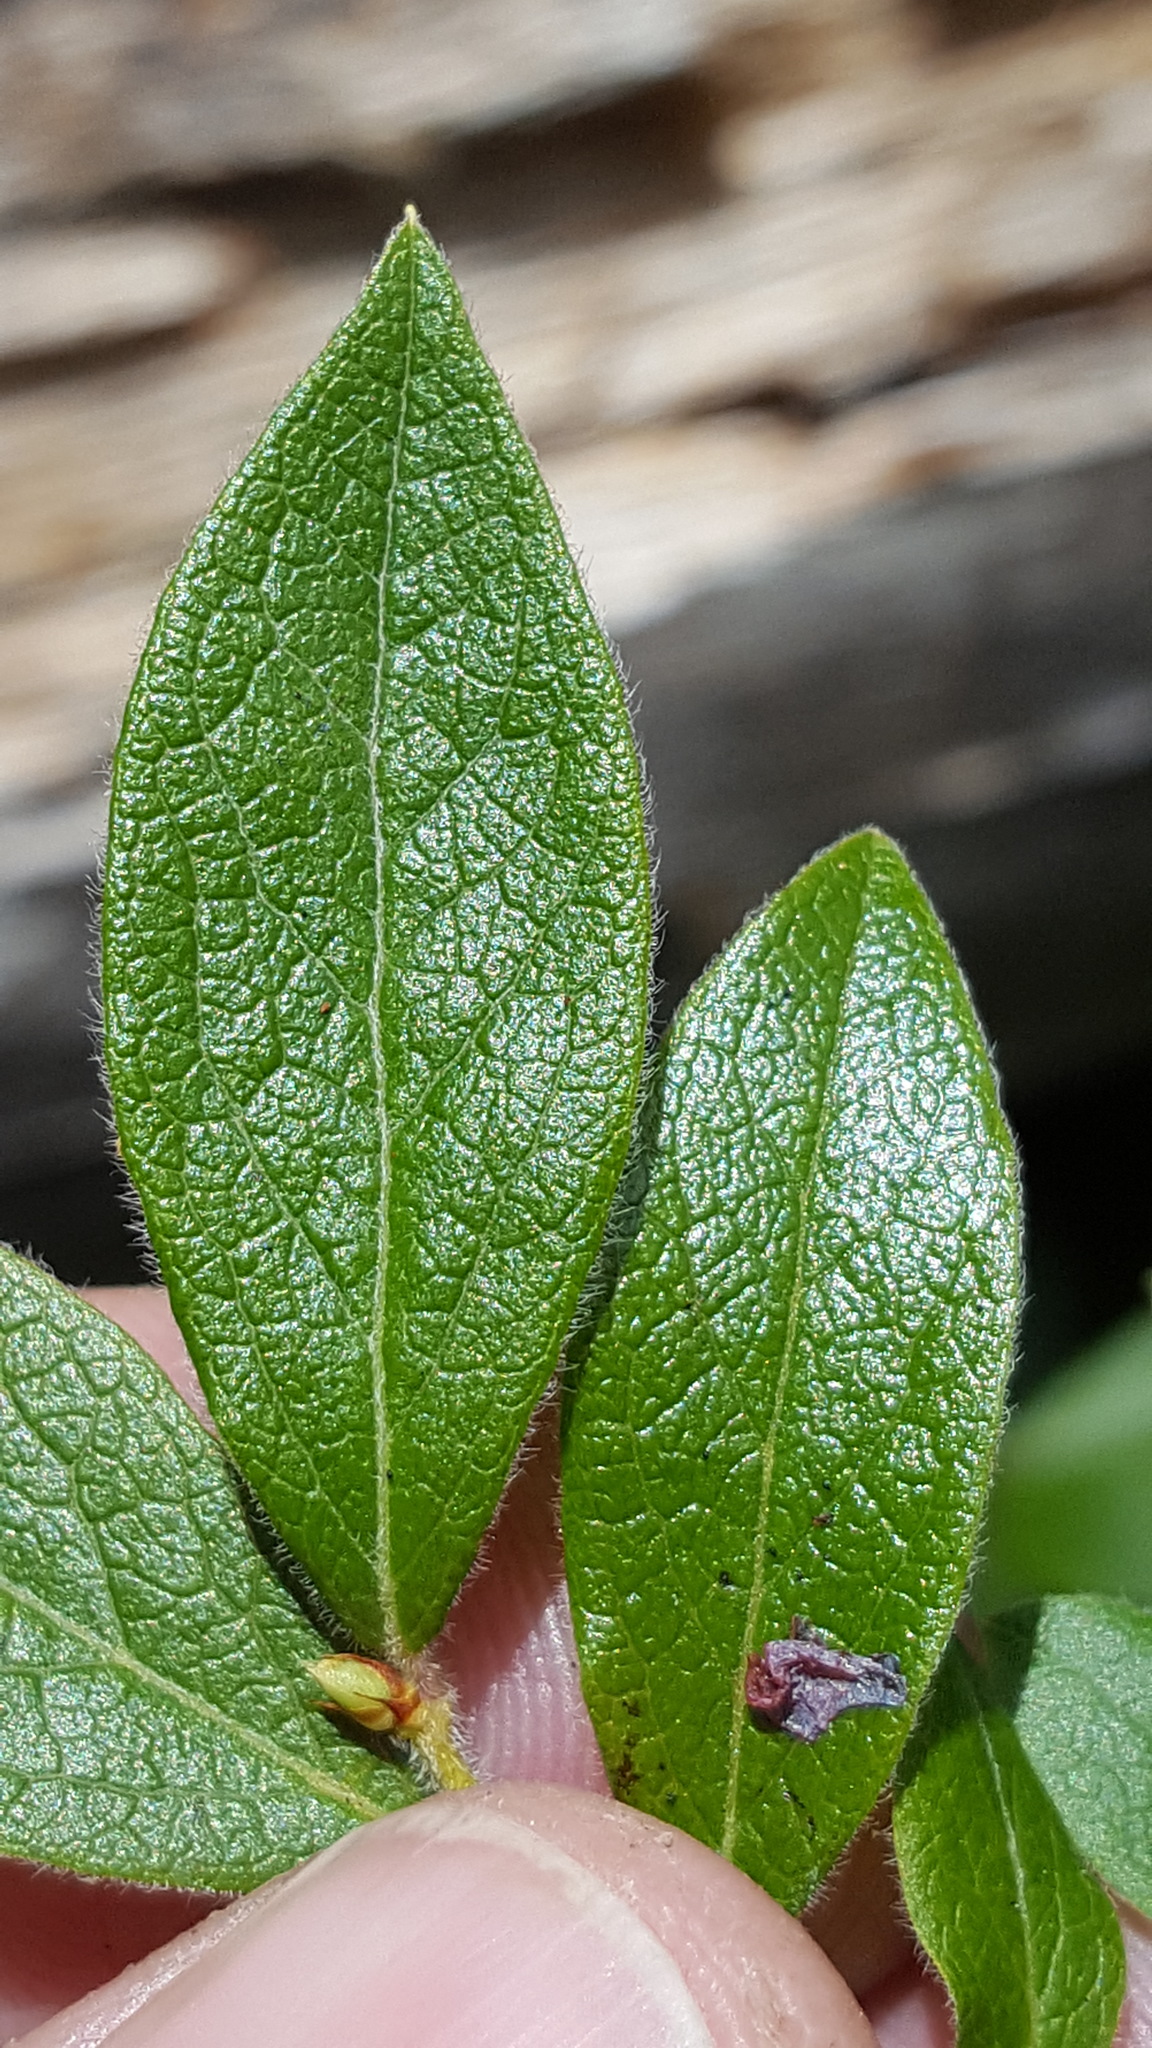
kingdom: Plantae
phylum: Tracheophyta
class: Magnoliopsida
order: Ericales
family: Ericaceae
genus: Vaccinium
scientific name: Vaccinium myrtilloides
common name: Canada blueberry
